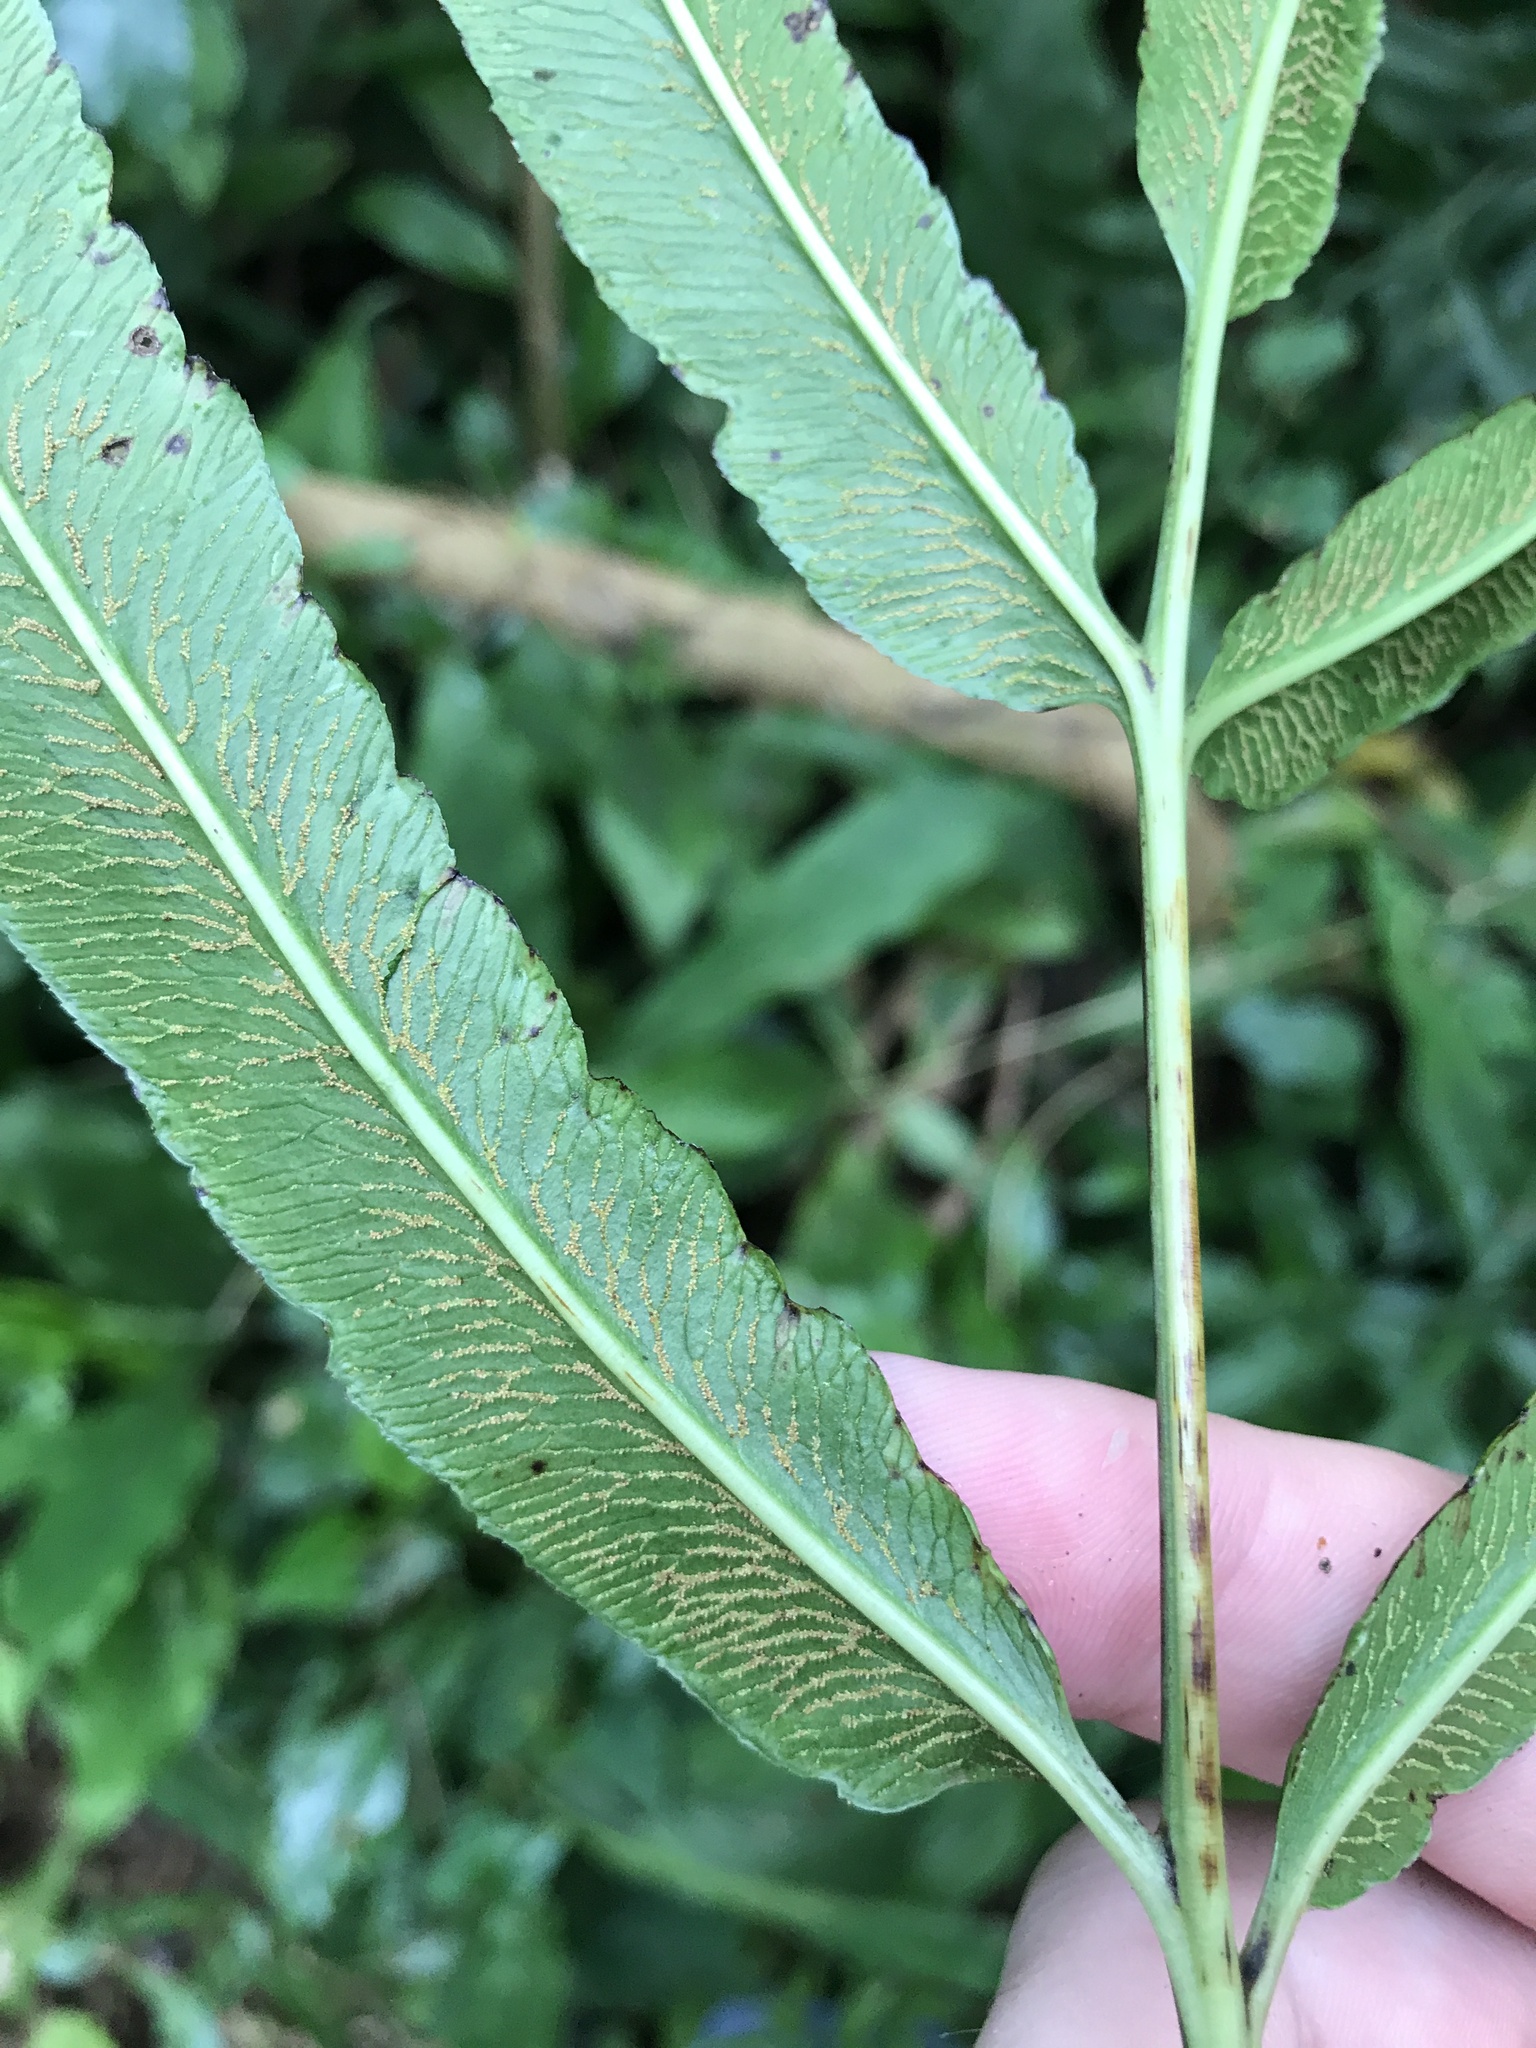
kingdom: Plantae
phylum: Tracheophyta
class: Polypodiopsida
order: Polypodiales
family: Pteridaceae
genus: Coniogramme
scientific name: Coniogramme japonica
